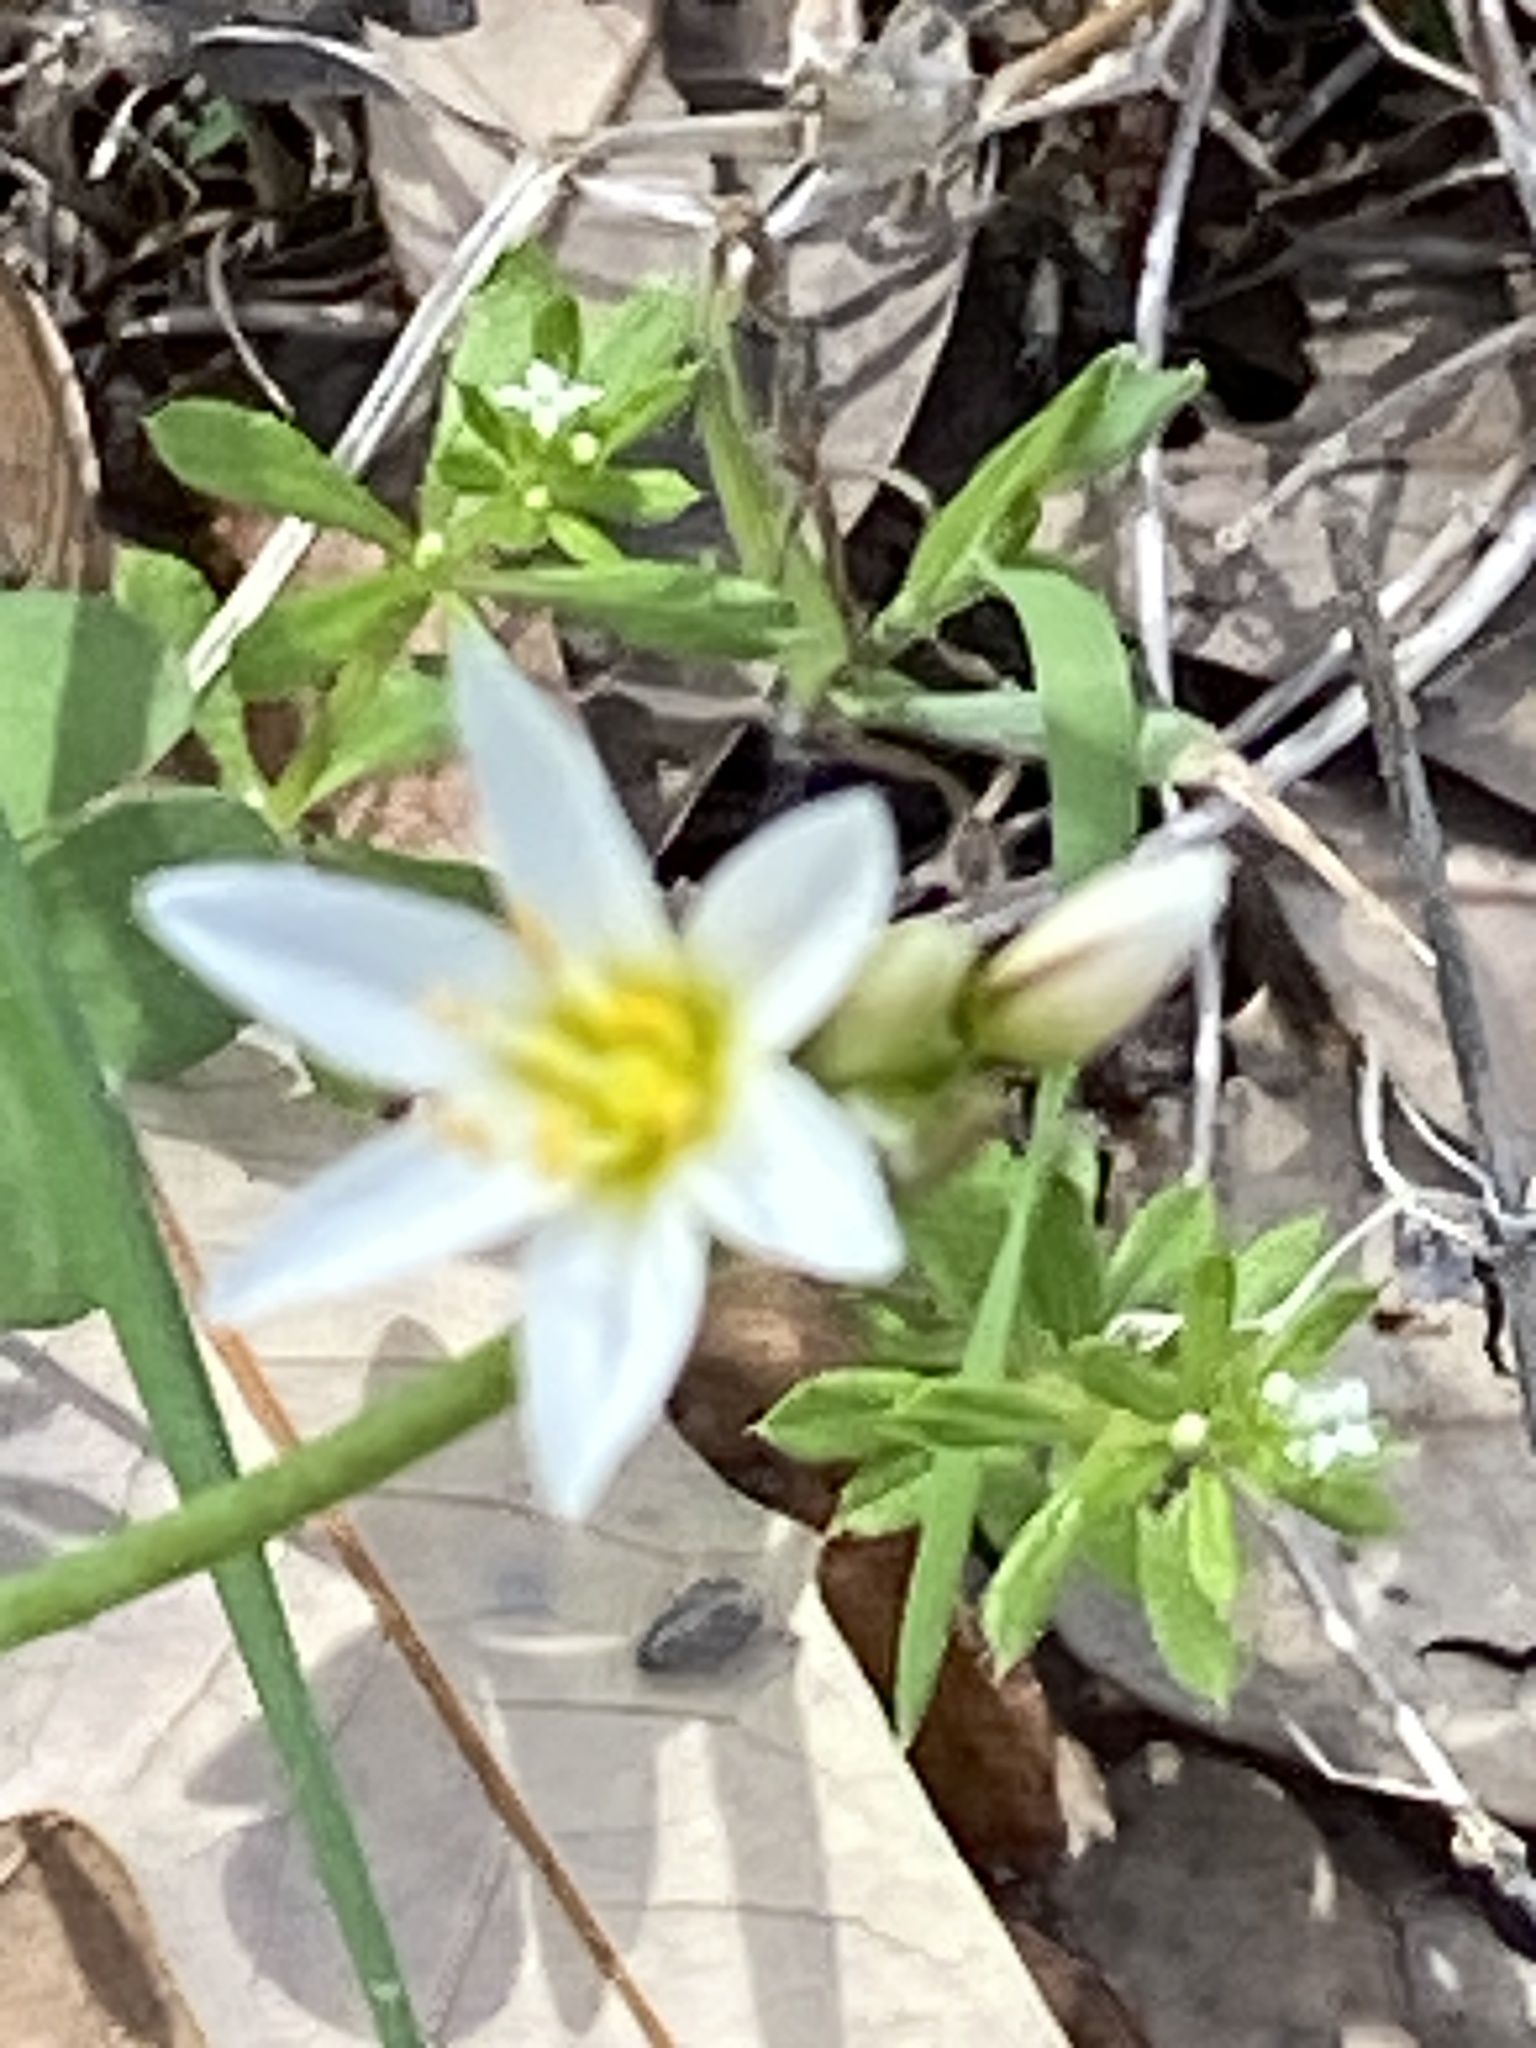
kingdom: Plantae
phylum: Tracheophyta
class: Liliopsida
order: Asparagales
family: Amaryllidaceae
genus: Nothoscordum
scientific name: Nothoscordum bivalve
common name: Crow-poison
